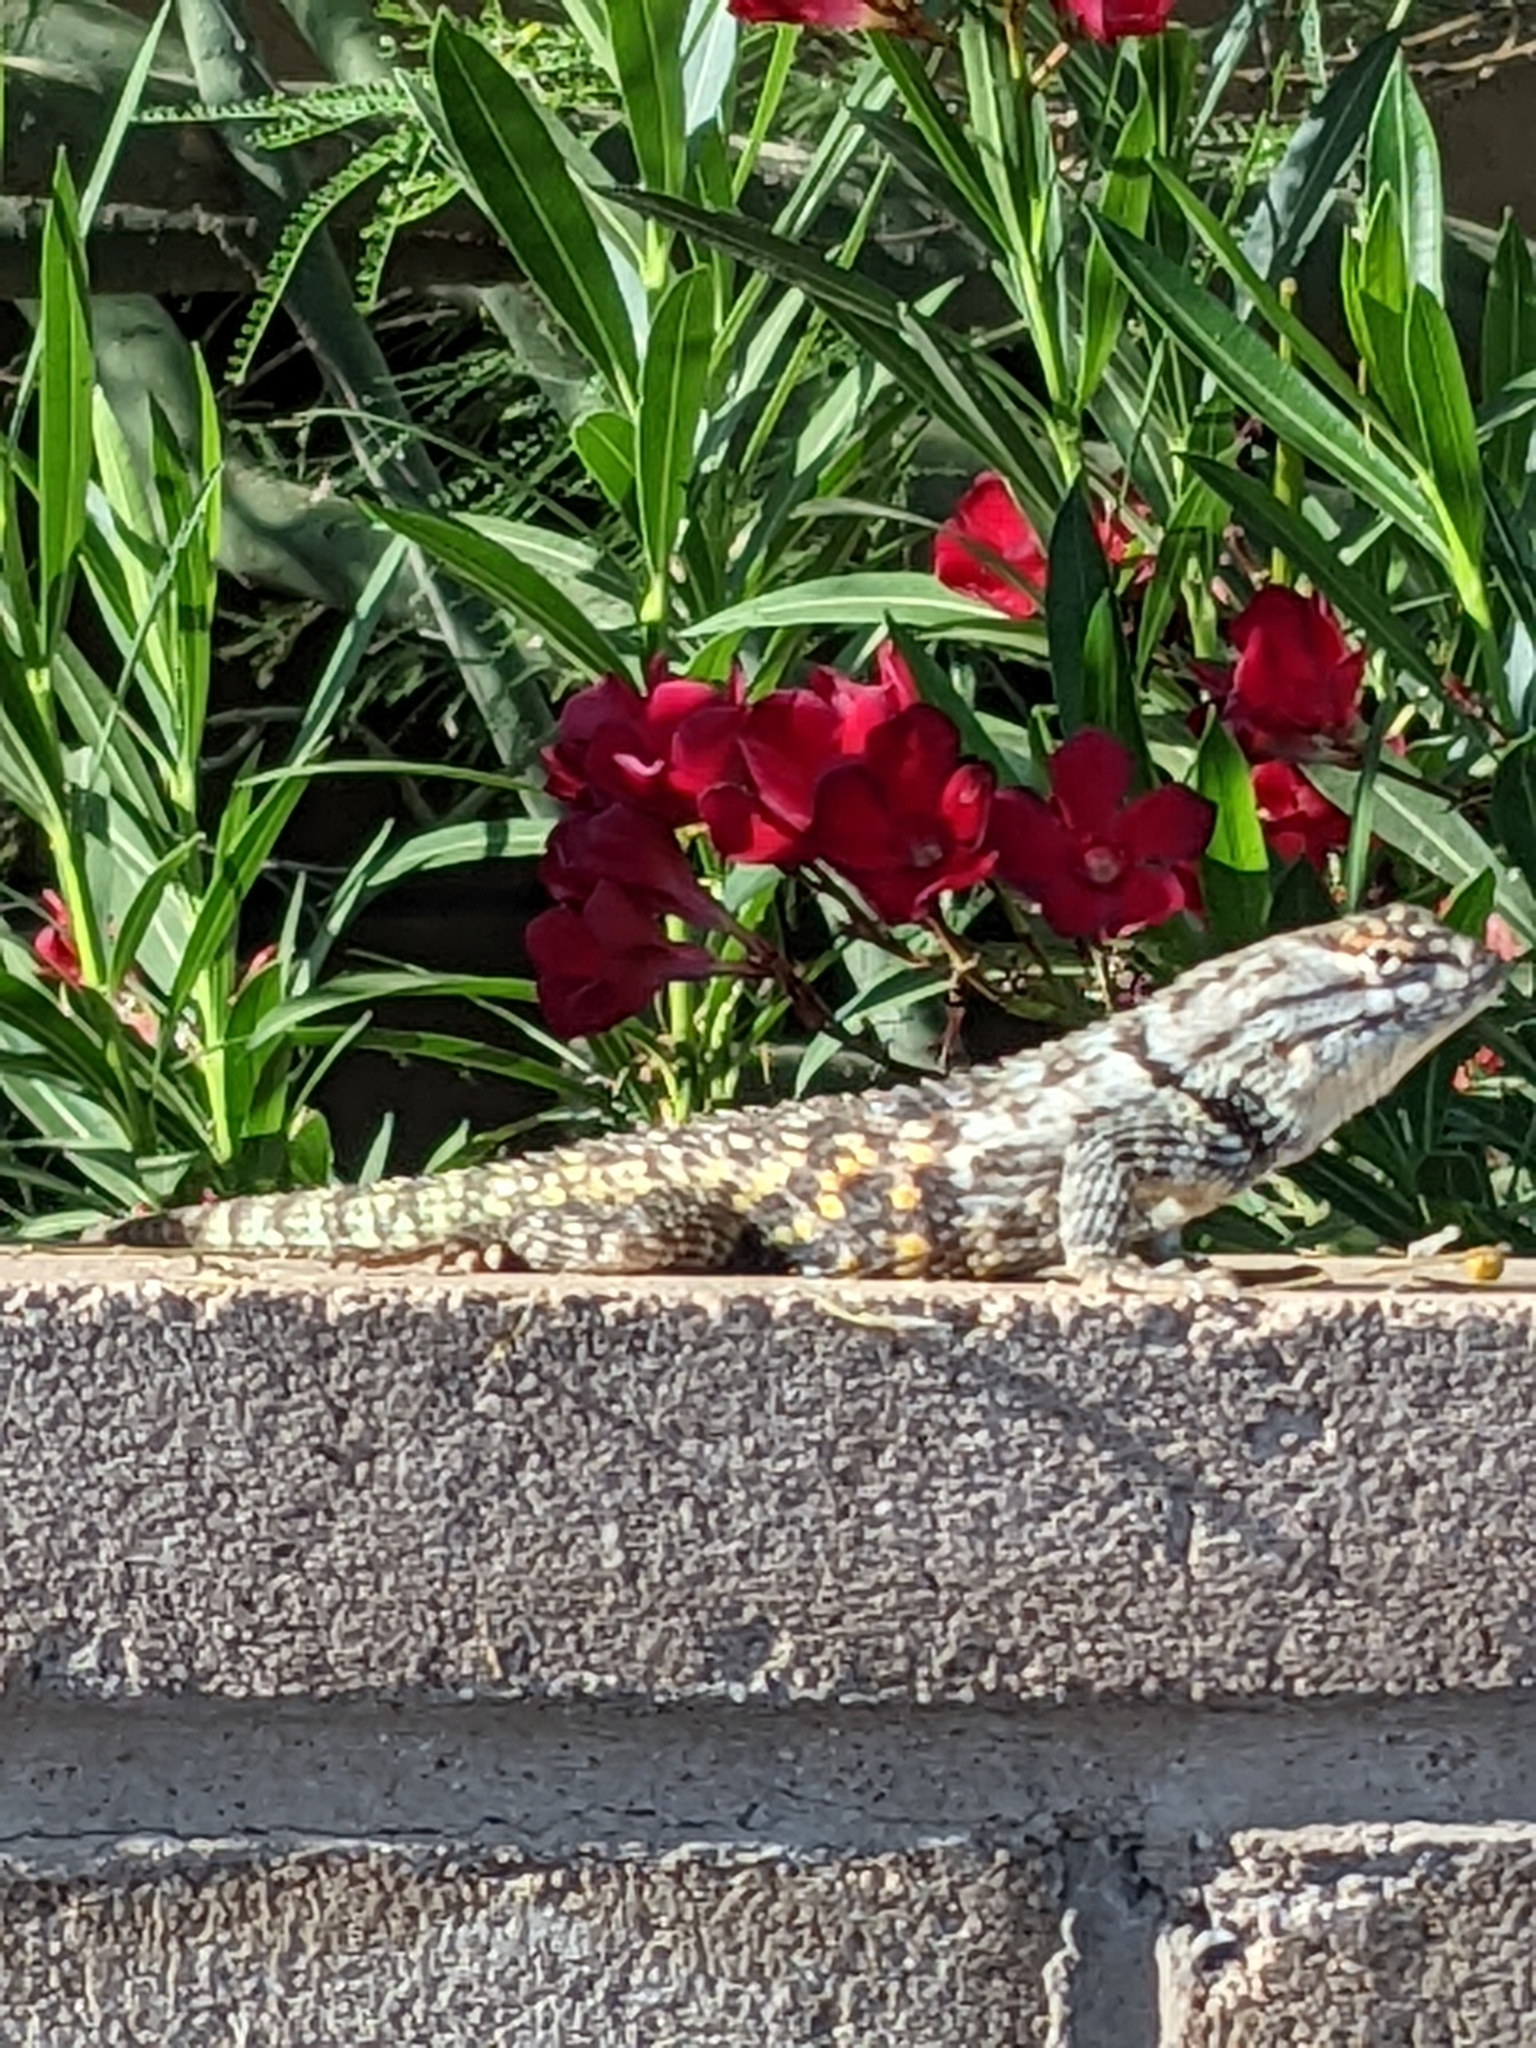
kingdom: Animalia
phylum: Chordata
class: Squamata
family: Phrynosomatidae
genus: Sceloporus
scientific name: Sceloporus magister
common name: Desert spiny lizard
